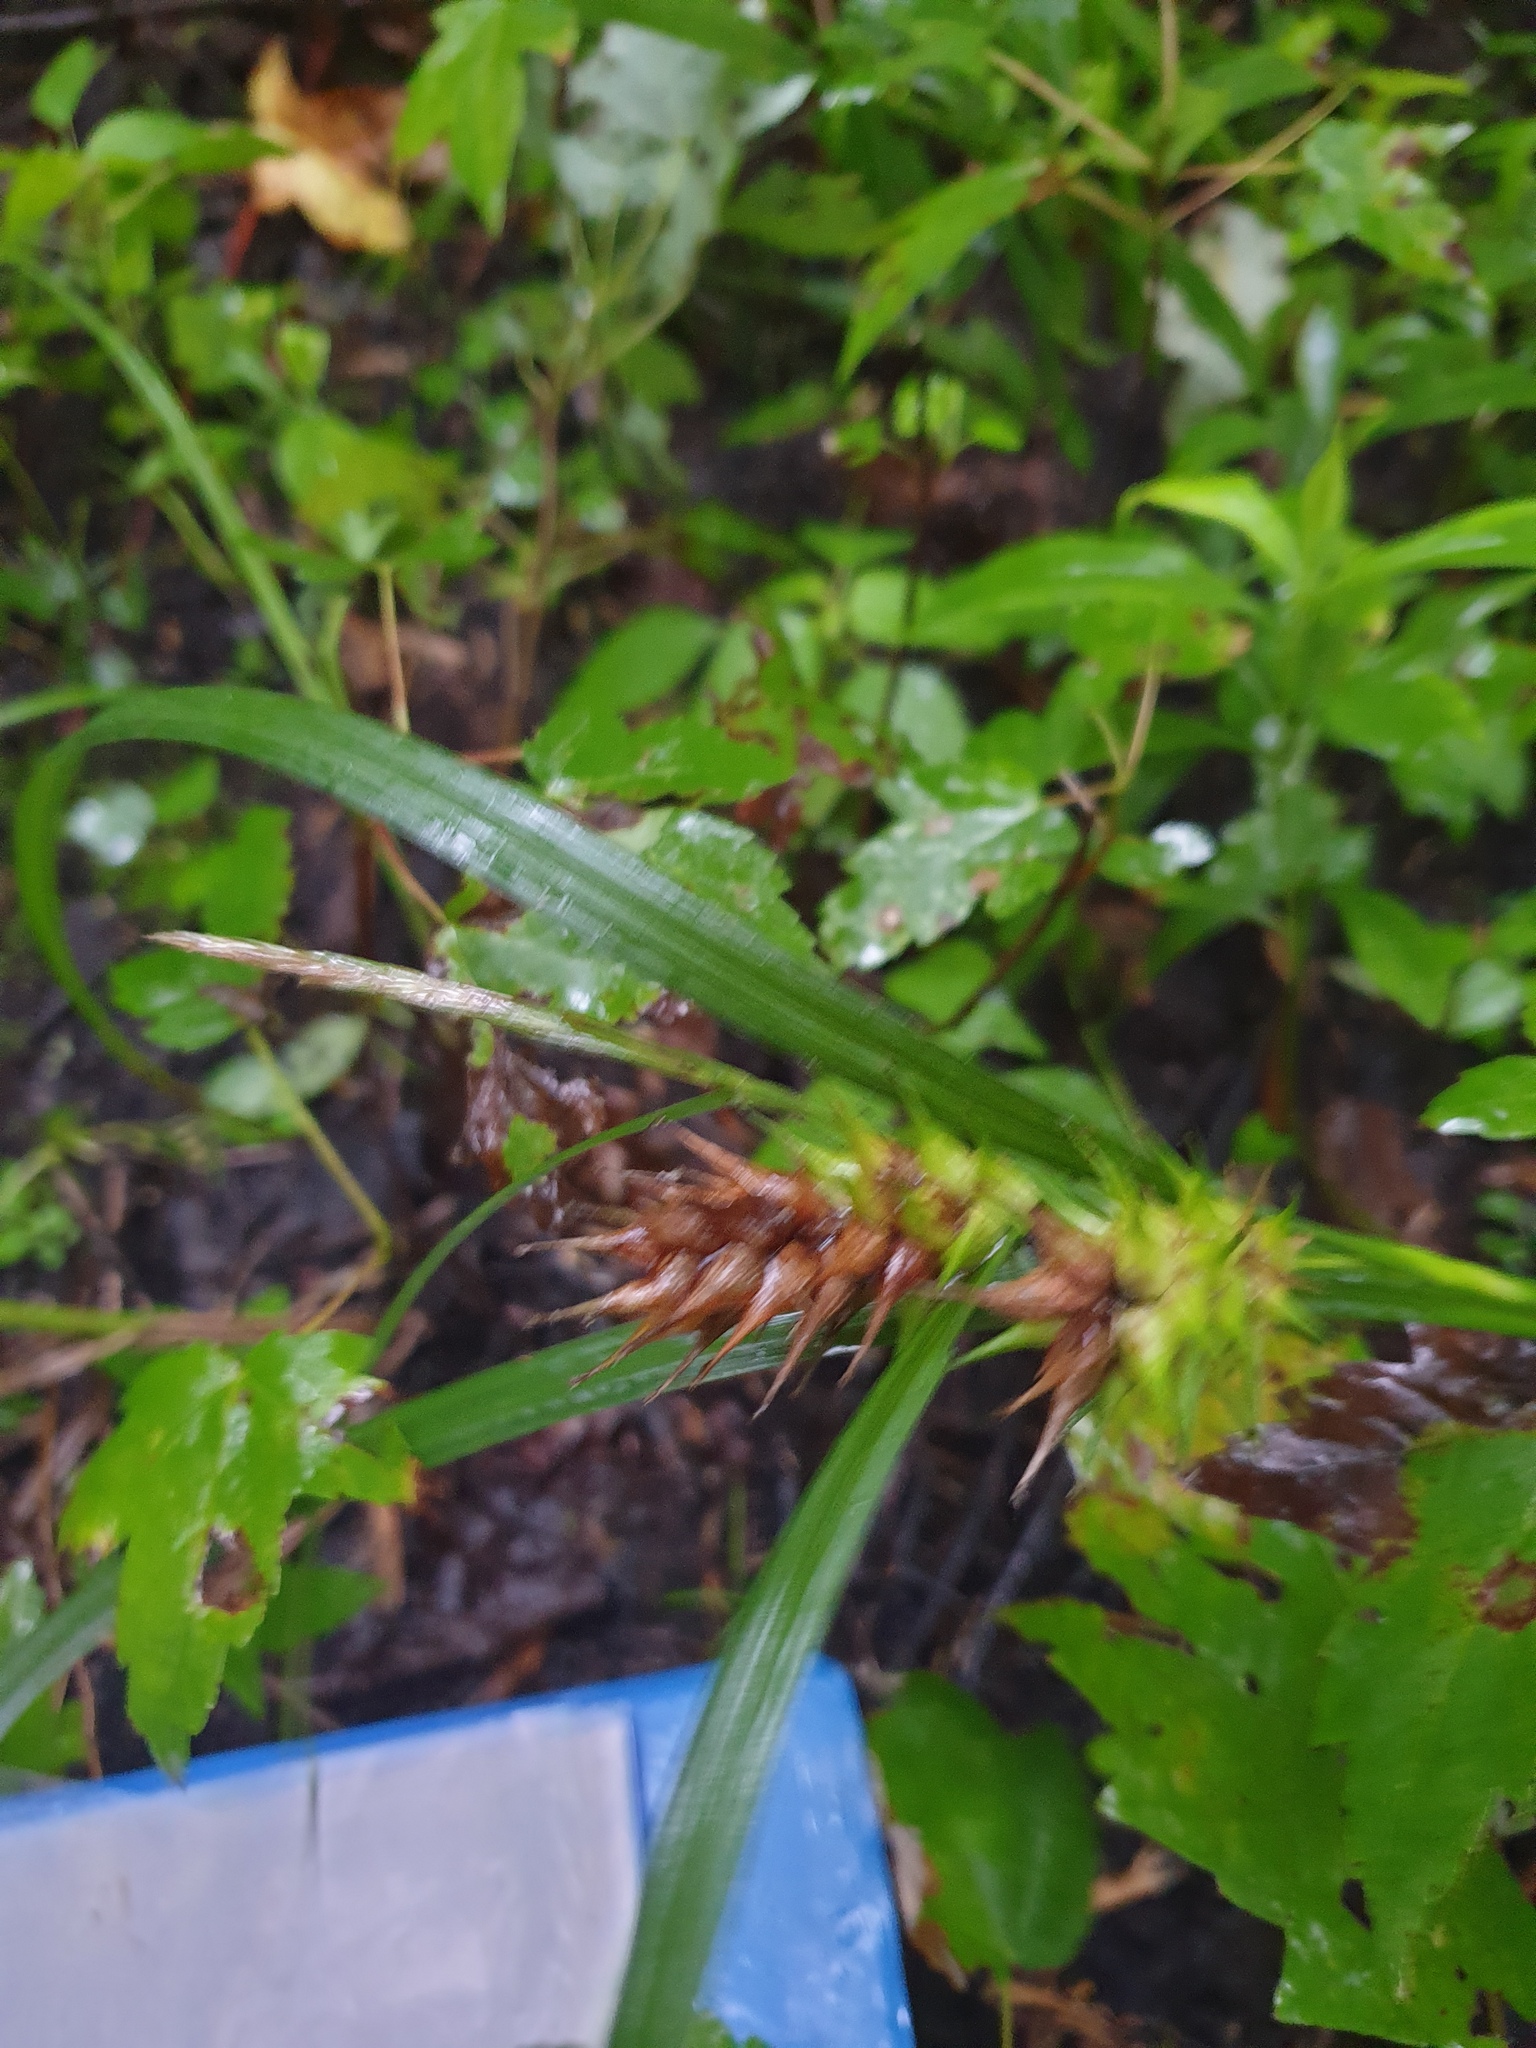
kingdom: Plantae
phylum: Tracheophyta
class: Liliopsida
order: Poales
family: Cyperaceae
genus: Carex
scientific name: Carex lupulina
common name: Hop sedge
